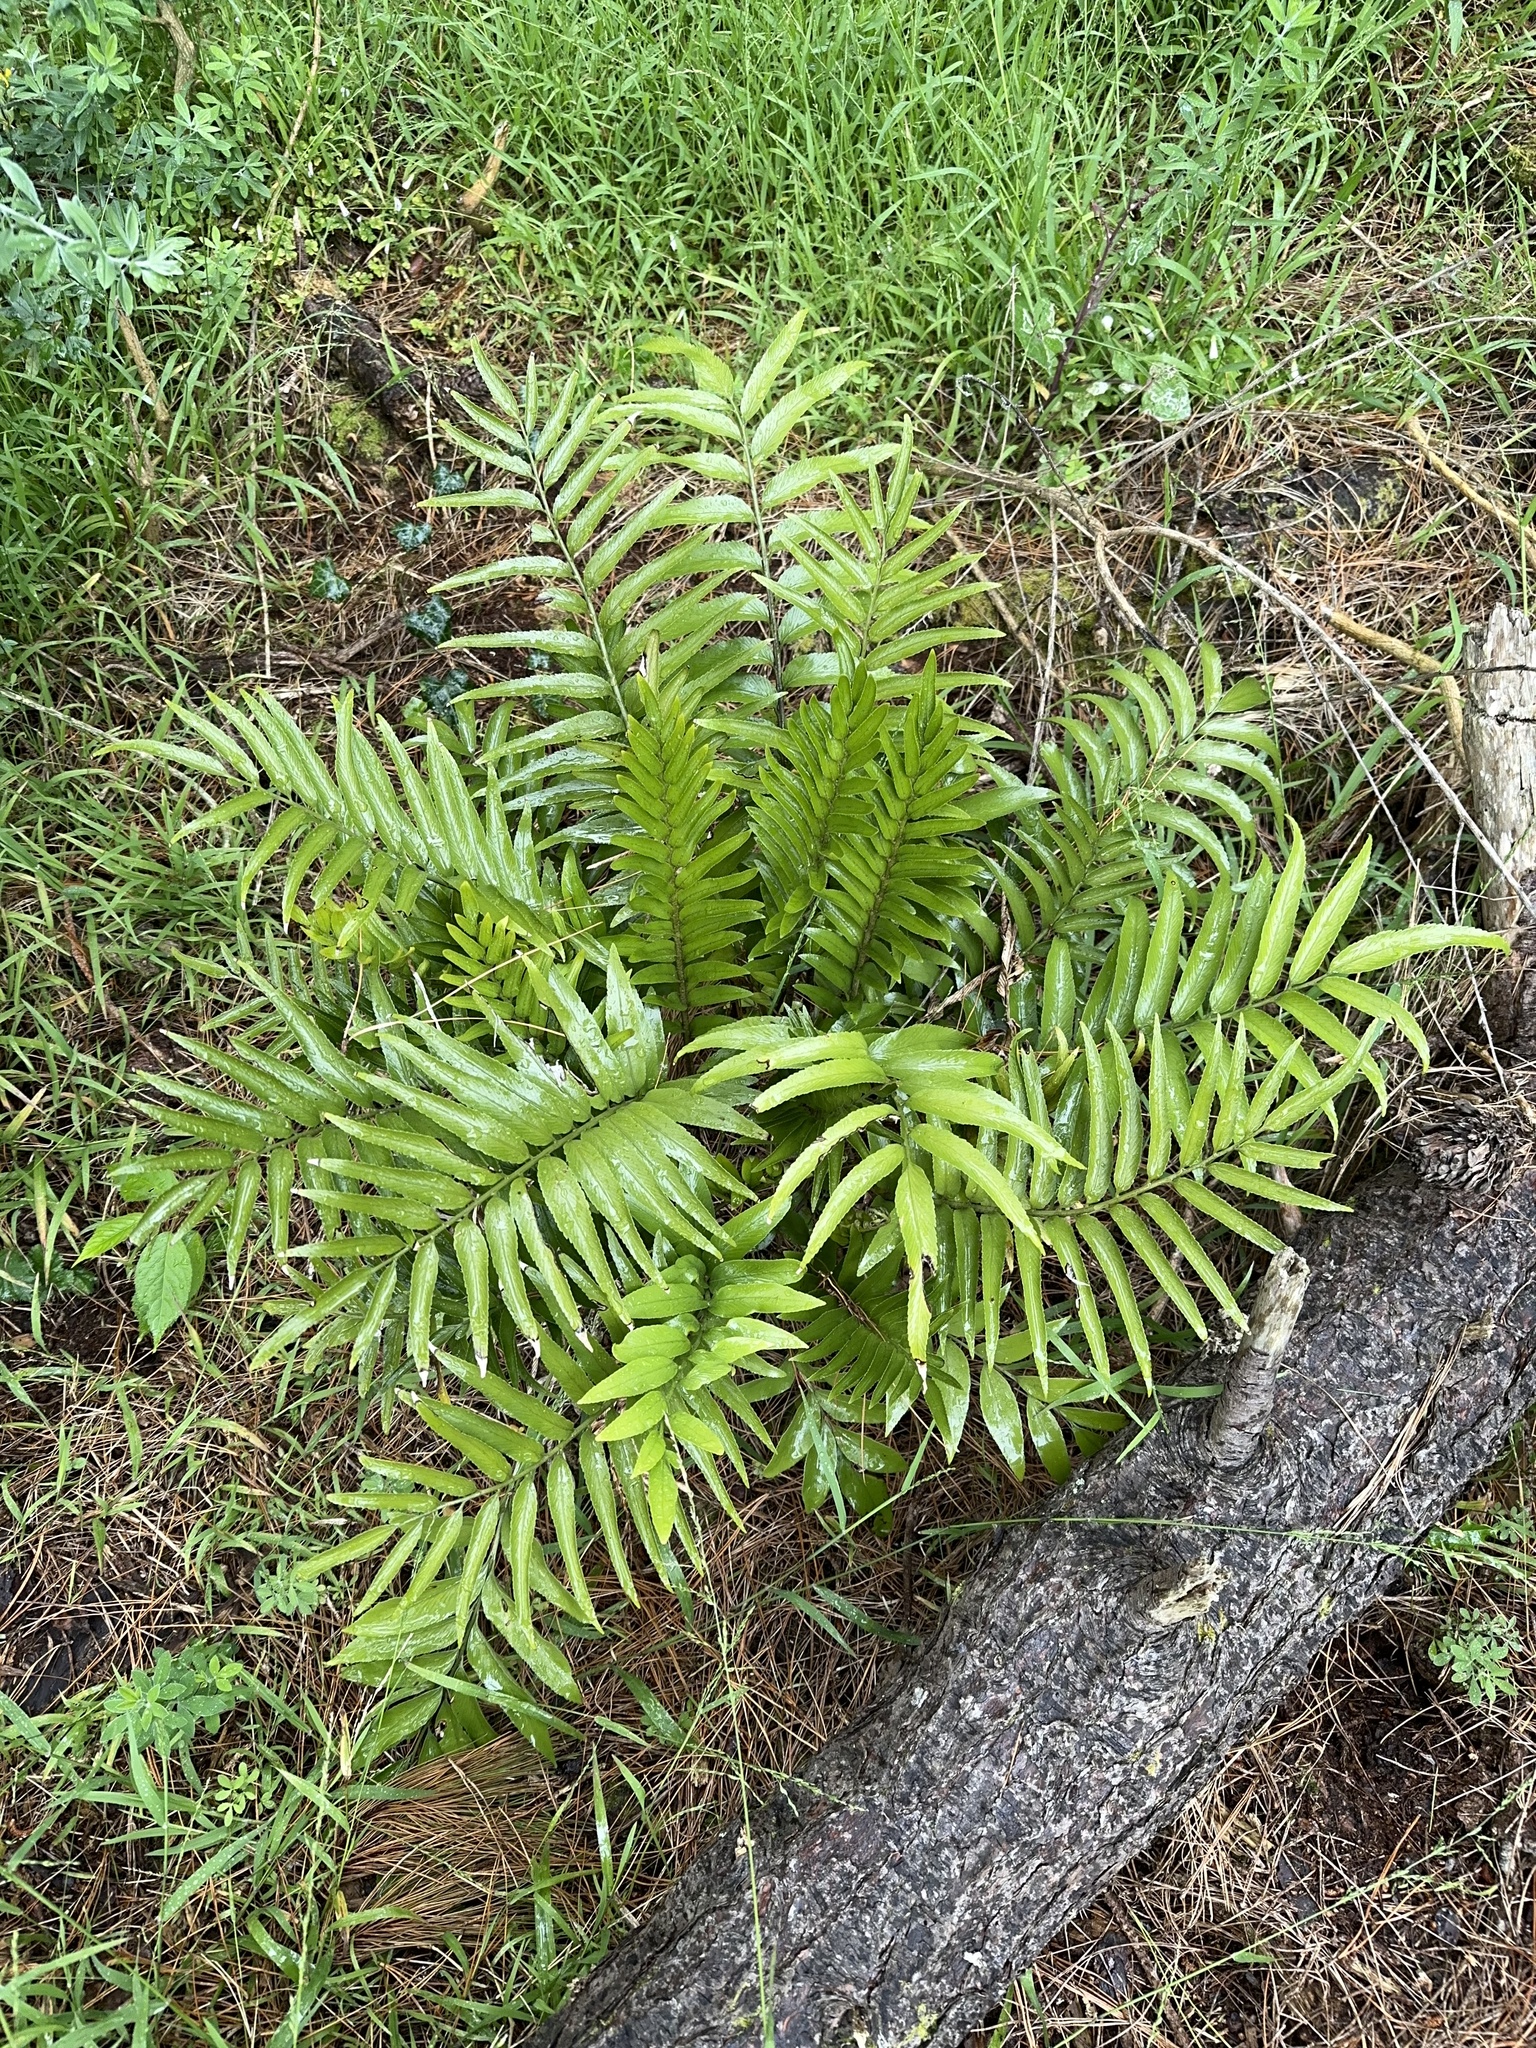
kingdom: Plantae
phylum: Tracheophyta
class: Polypodiopsida
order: Polypodiales
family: Aspleniaceae
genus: Asplenium
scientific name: Asplenium oblongifolium
